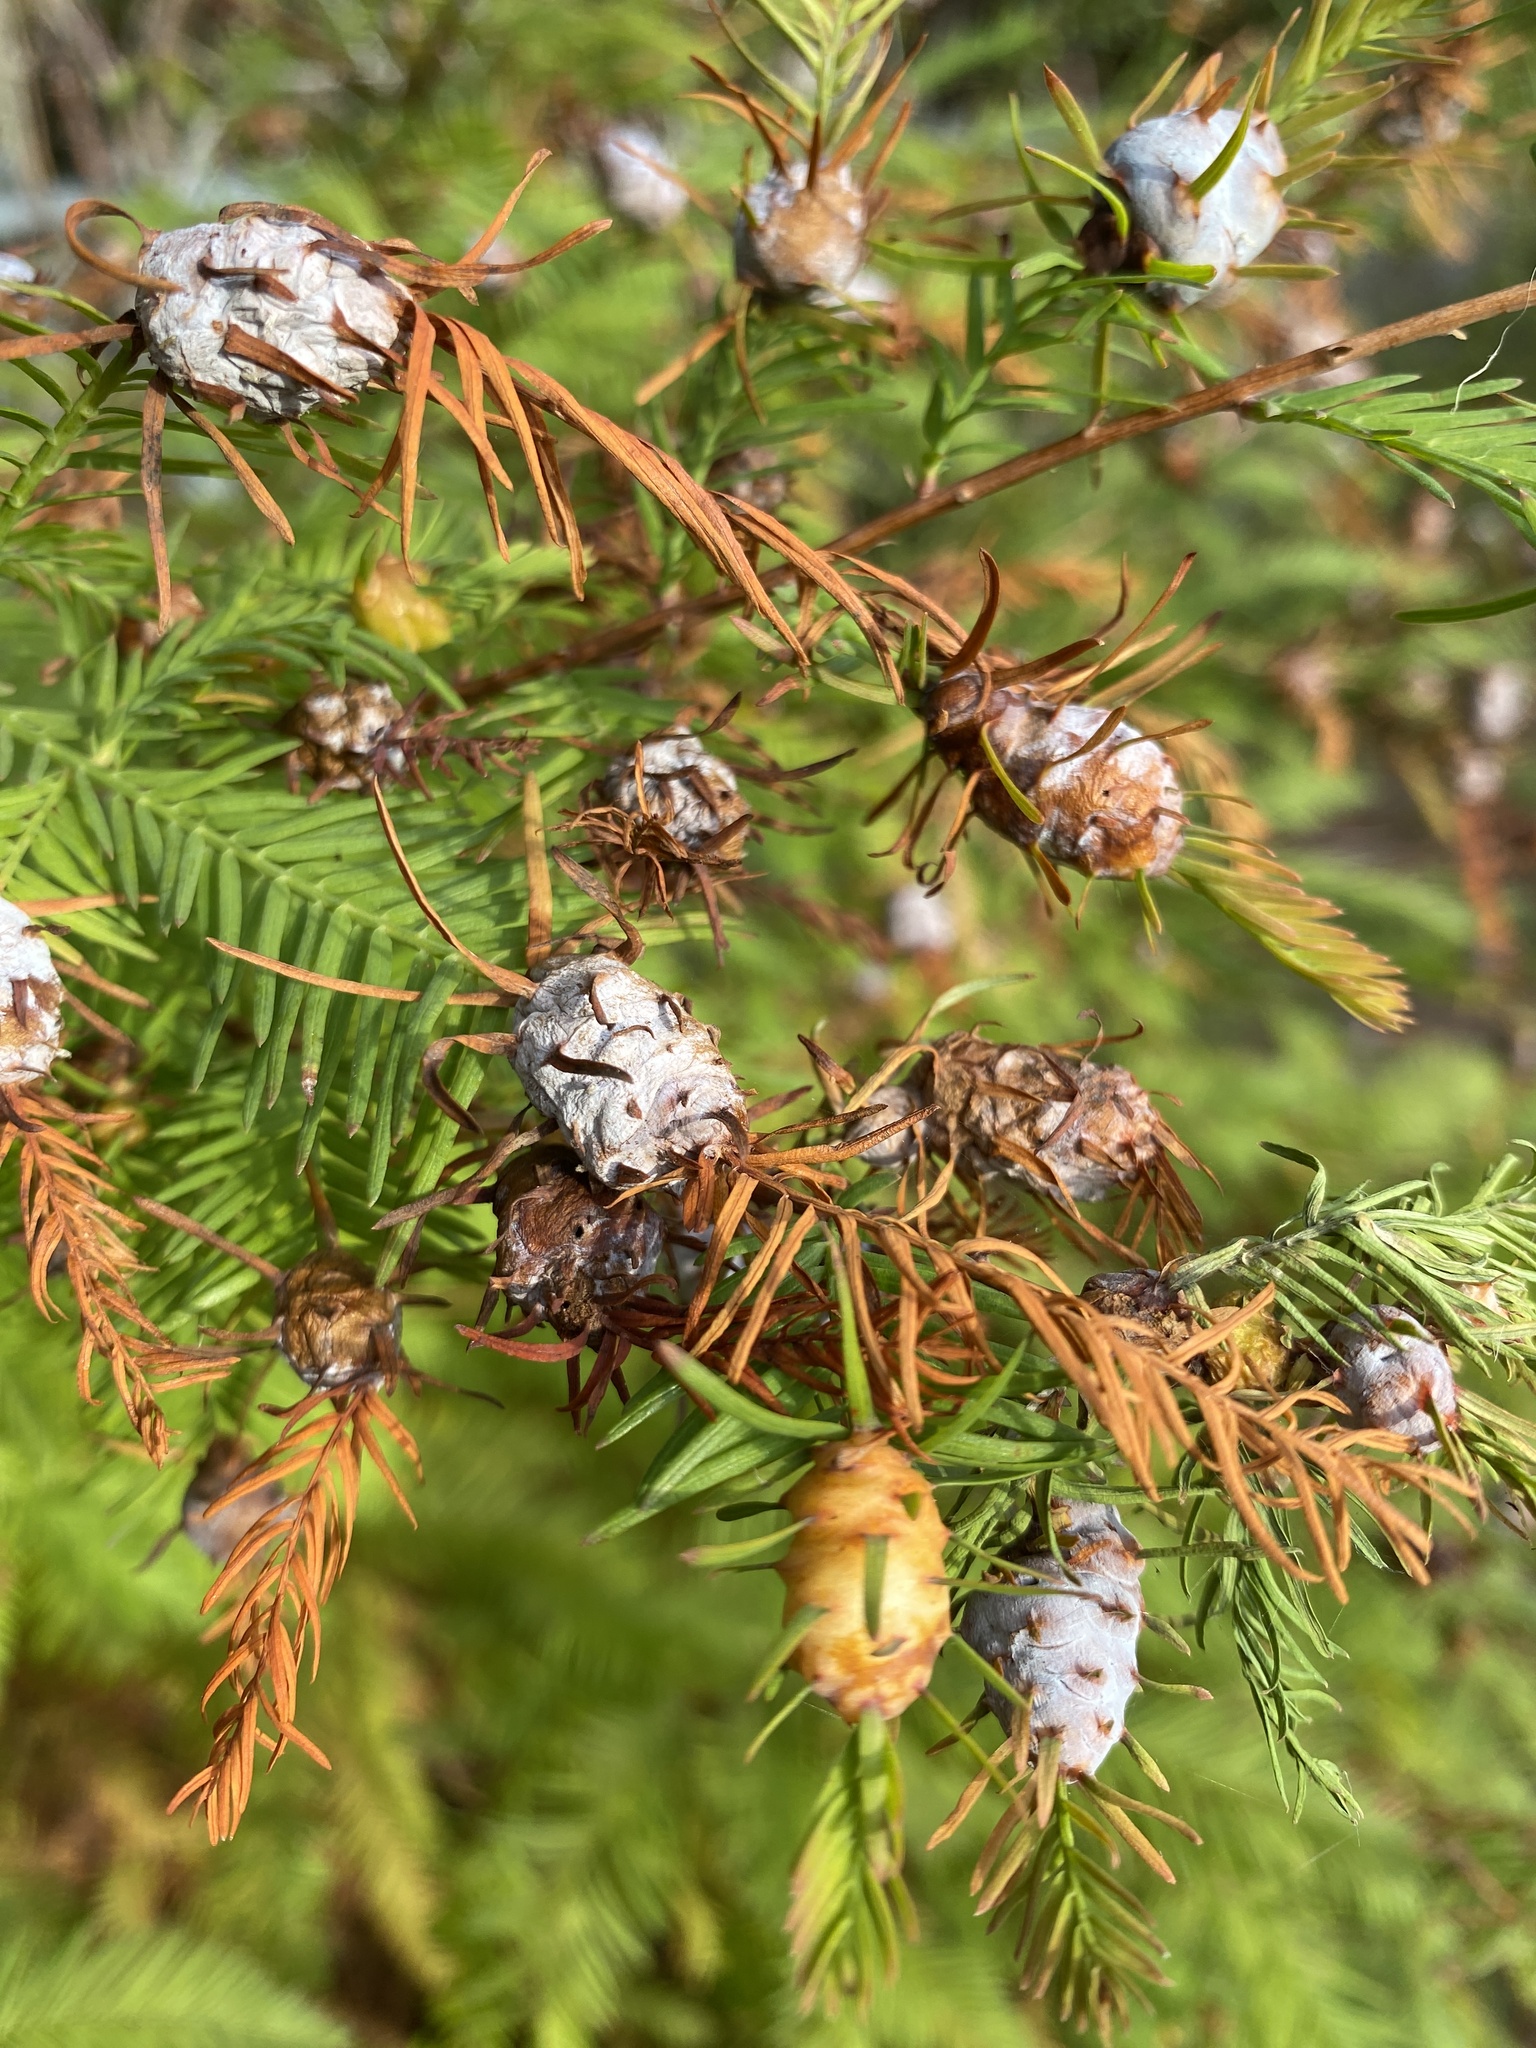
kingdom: Animalia
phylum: Arthropoda
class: Insecta
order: Diptera
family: Cecidomyiidae
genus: Taxodiomyia
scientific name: Taxodiomyia cupressiananassa
